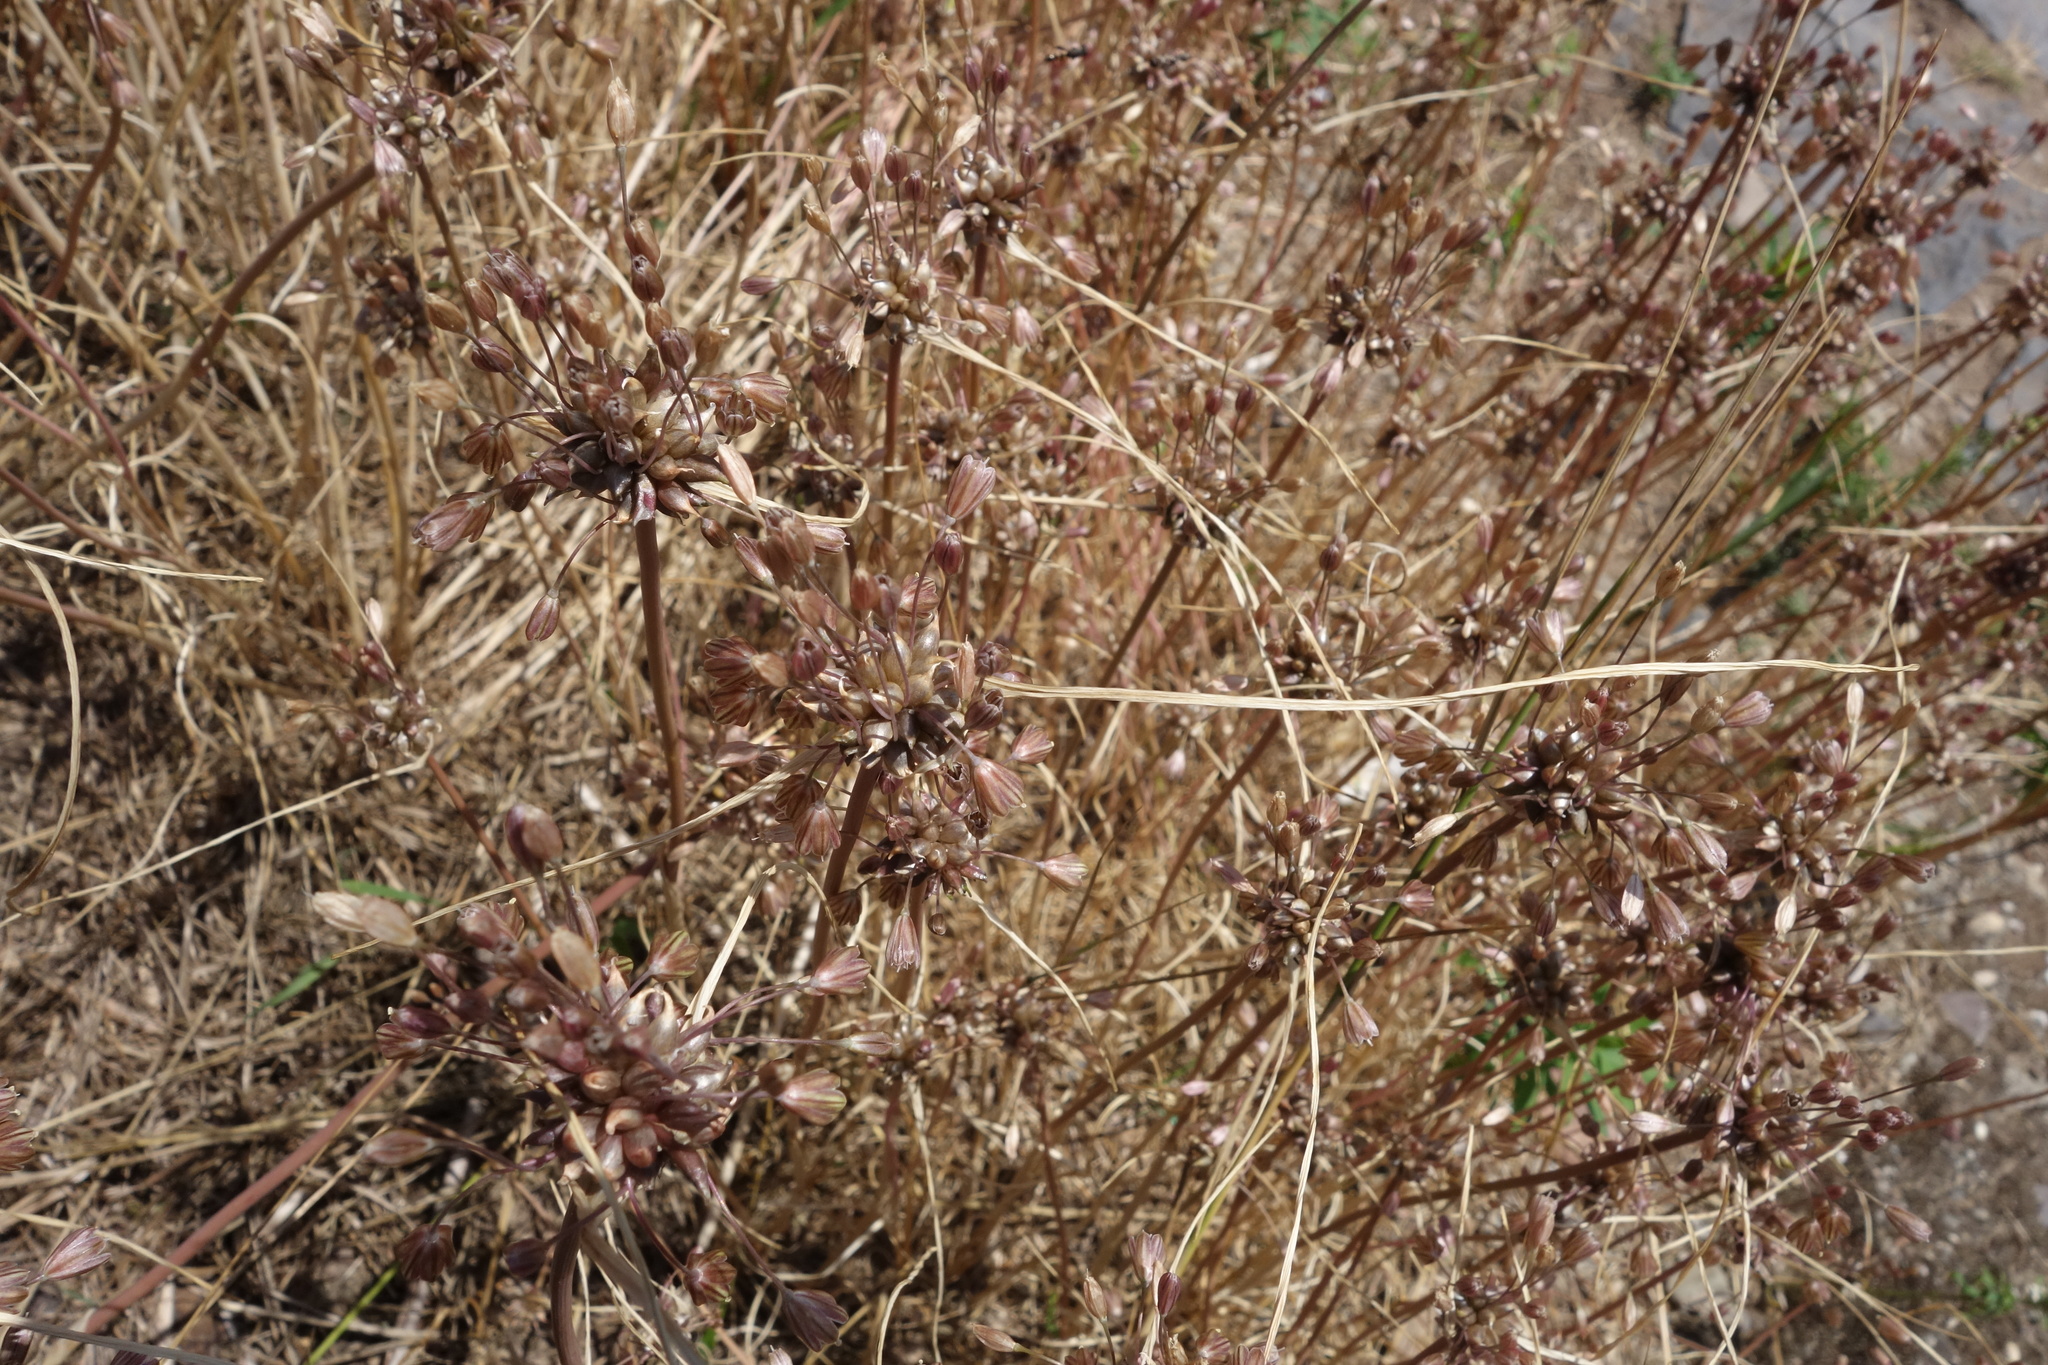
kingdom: Plantae
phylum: Tracheophyta
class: Liliopsida
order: Asparagales
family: Amaryllidaceae
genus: Allium
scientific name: Allium oleraceum
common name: Field garlic
